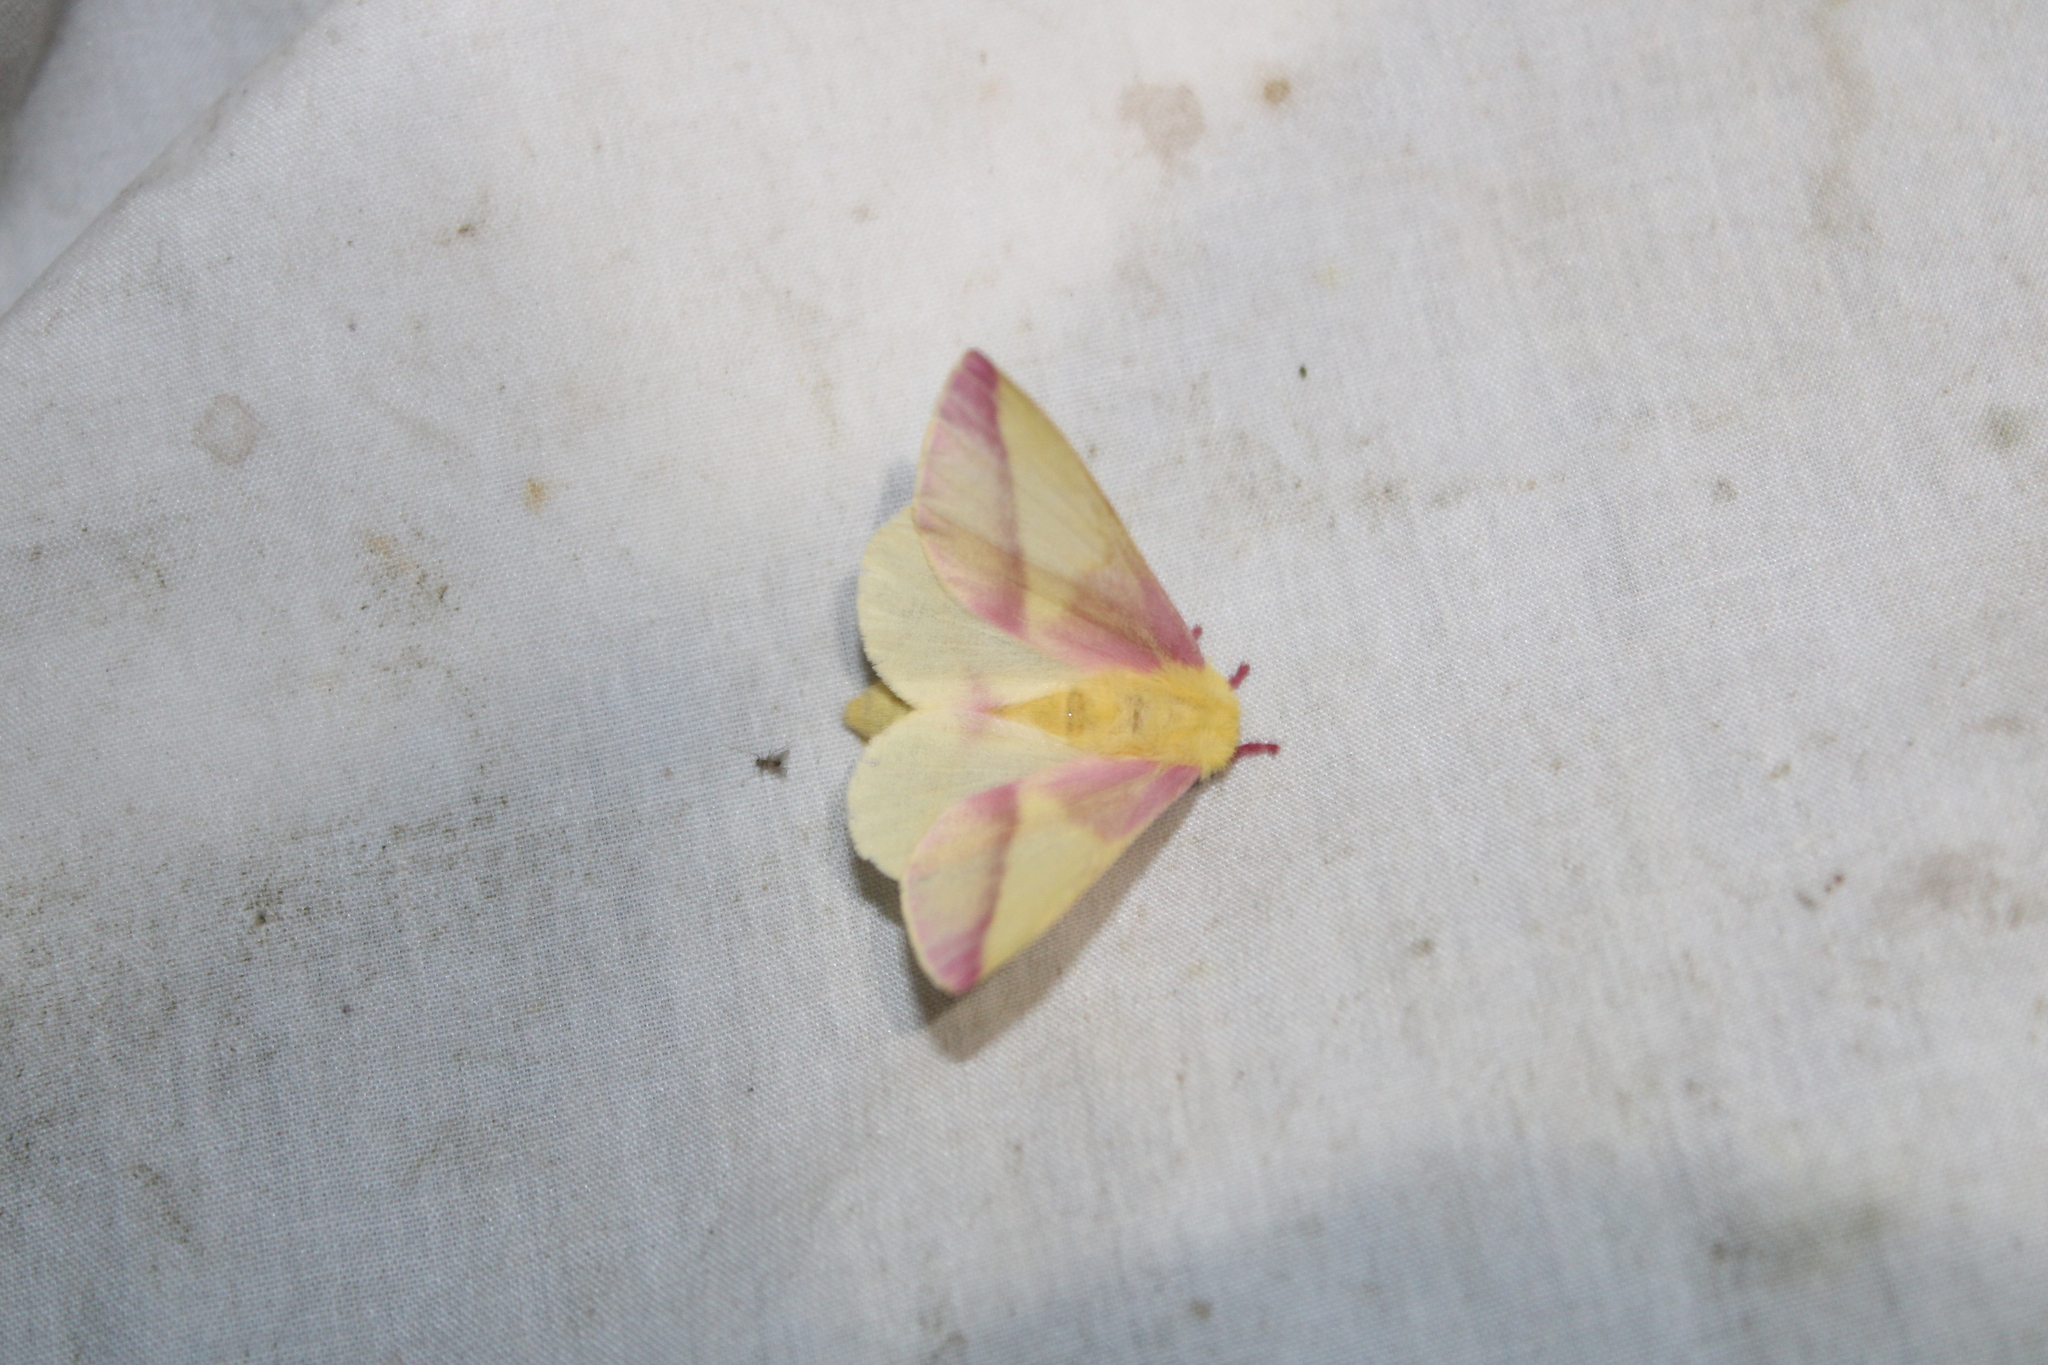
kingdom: Animalia
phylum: Arthropoda
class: Insecta
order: Lepidoptera
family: Saturniidae
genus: Dryocampa
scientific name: Dryocampa rubicunda
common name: Rosy maple moth
